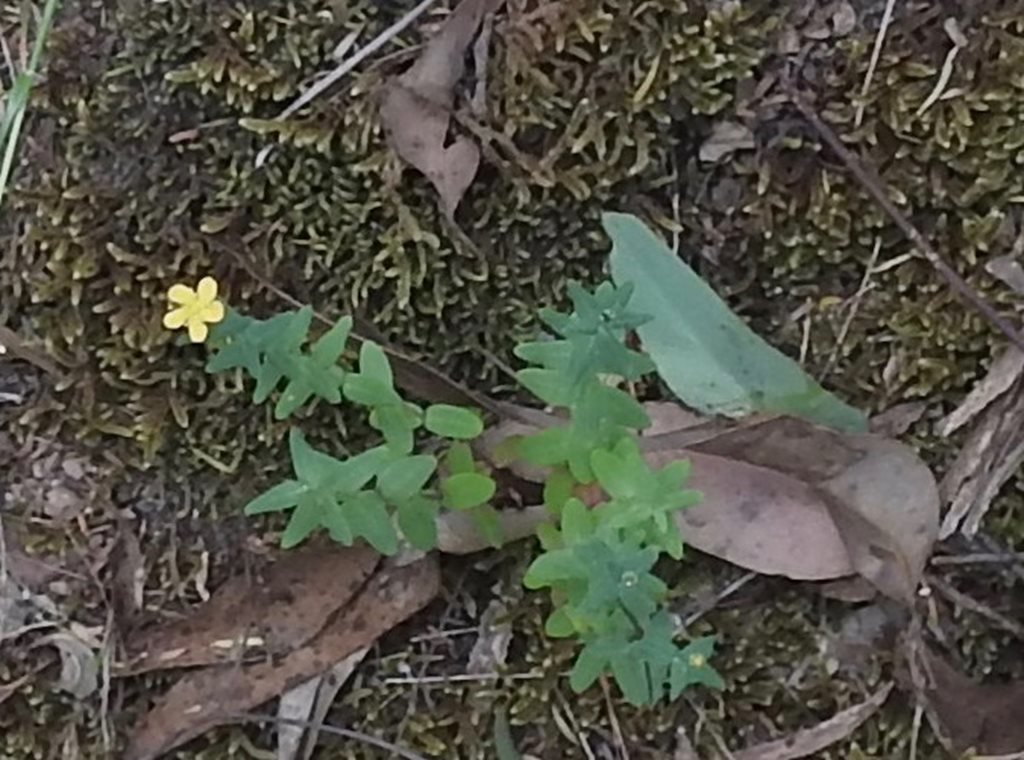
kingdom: Plantae
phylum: Tracheophyta
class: Magnoliopsida
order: Malpighiales
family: Hypericaceae
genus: Hypericum
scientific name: Hypericum gramineum
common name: Grassy st. johnswort
